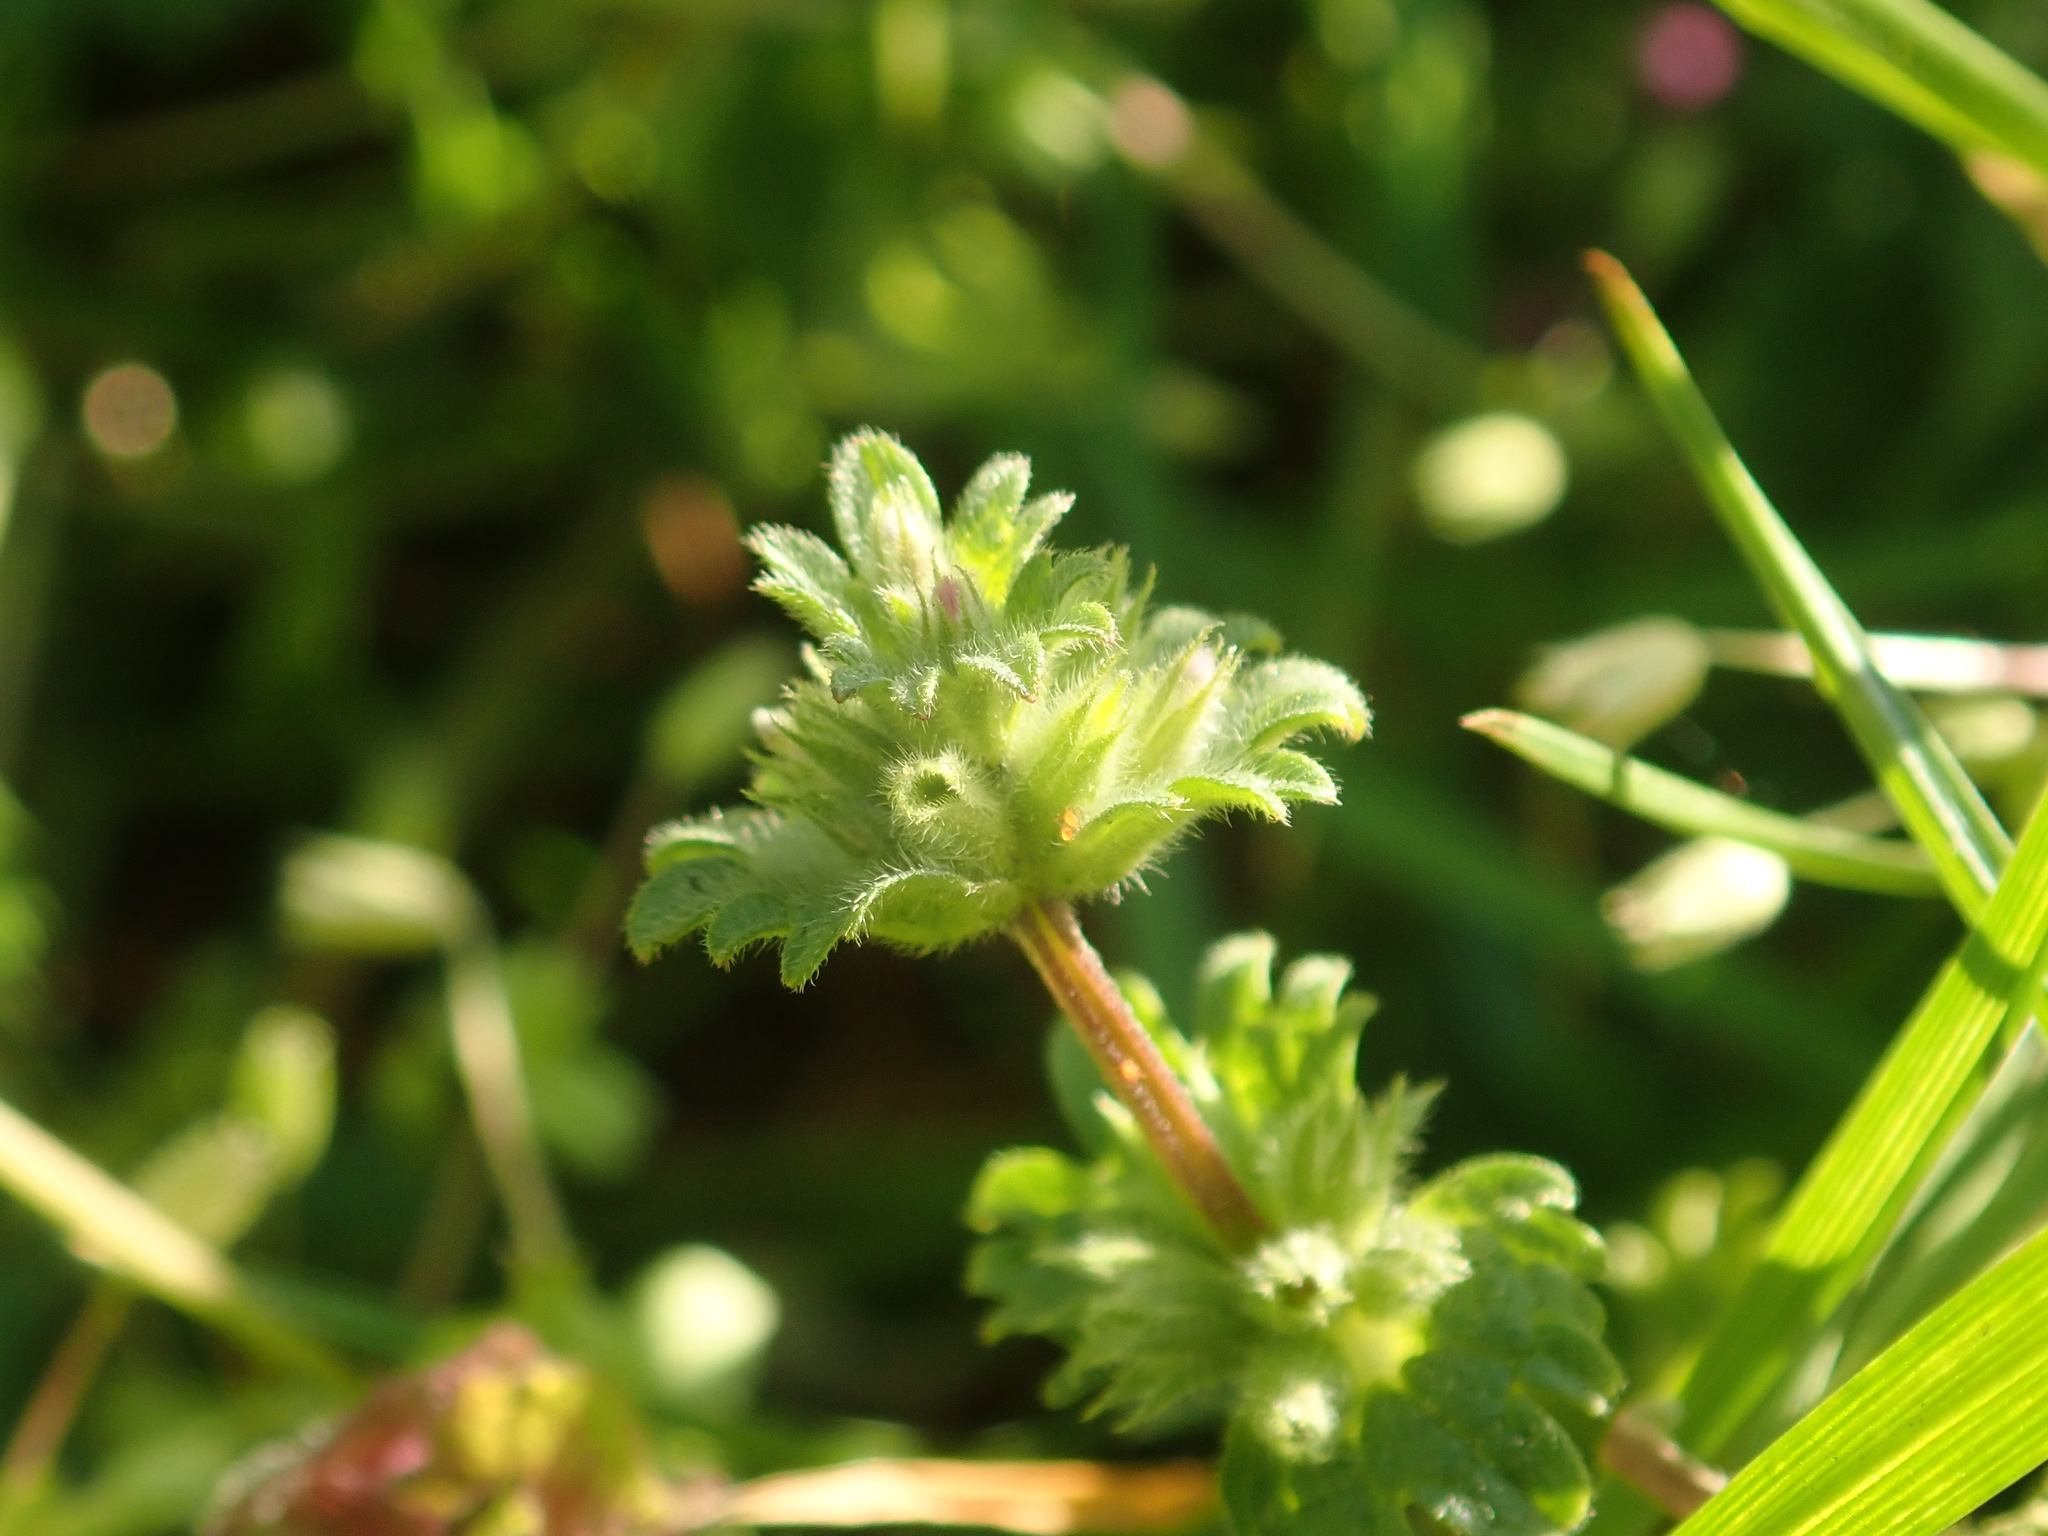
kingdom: Plantae
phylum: Tracheophyta
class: Magnoliopsida
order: Lamiales
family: Lamiaceae
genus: Lamium
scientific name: Lamium amplexicaule
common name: Henbit dead-nettle
